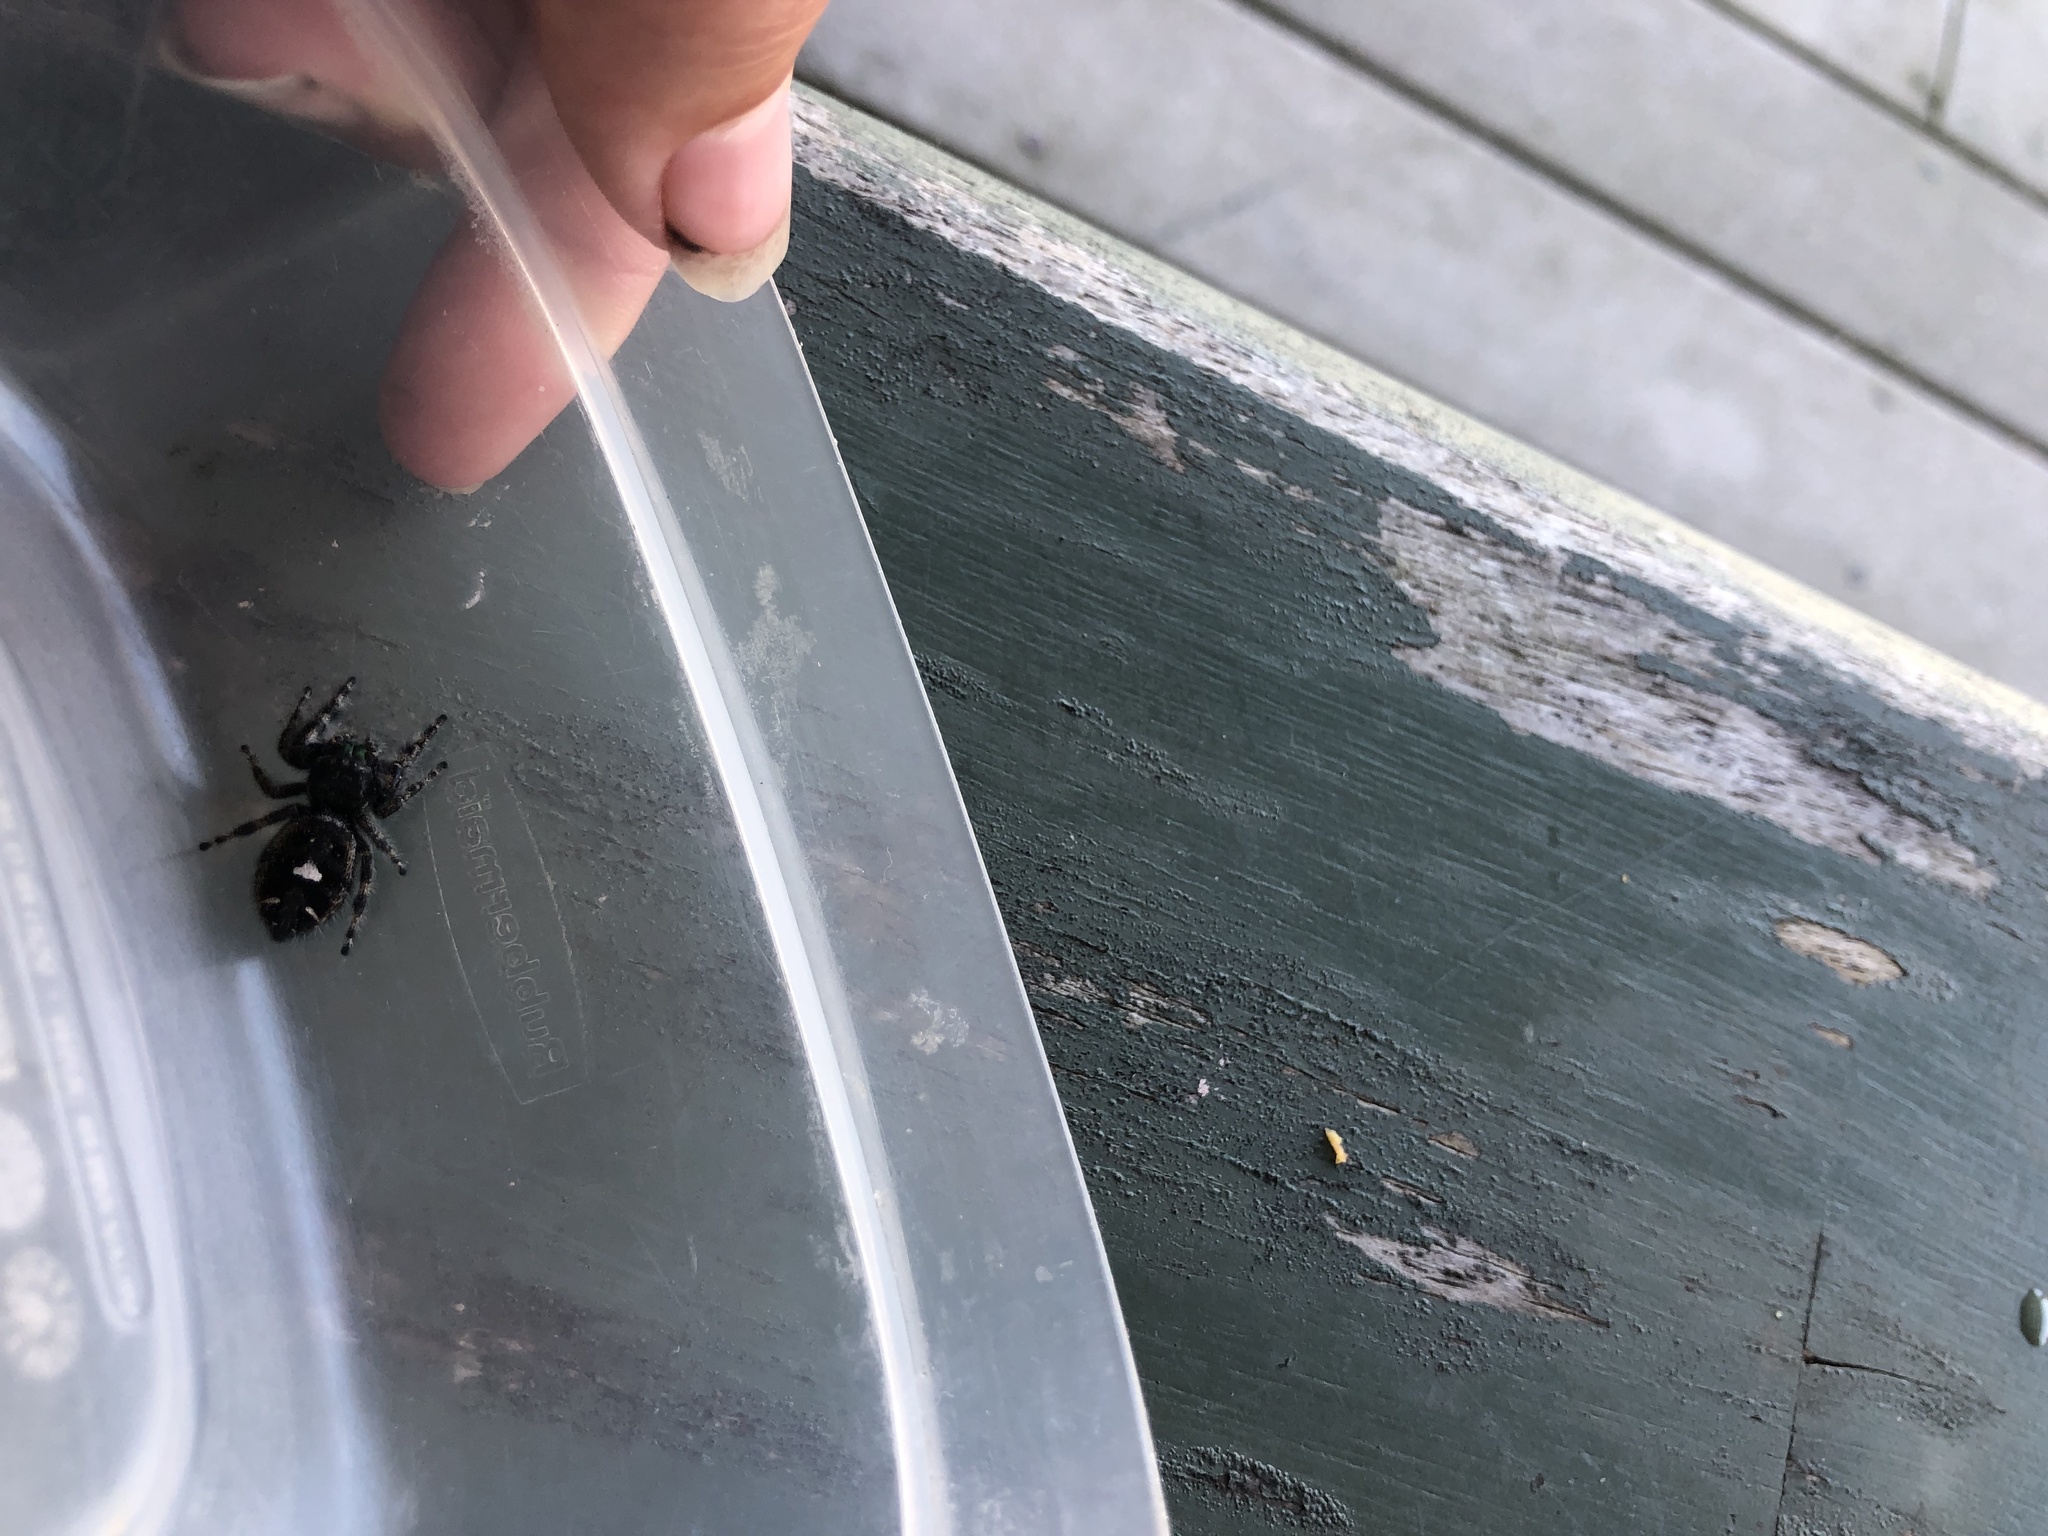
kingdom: Animalia
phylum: Arthropoda
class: Arachnida
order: Araneae
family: Salticidae
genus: Phidippus
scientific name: Phidippus audax
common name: Bold jumper
